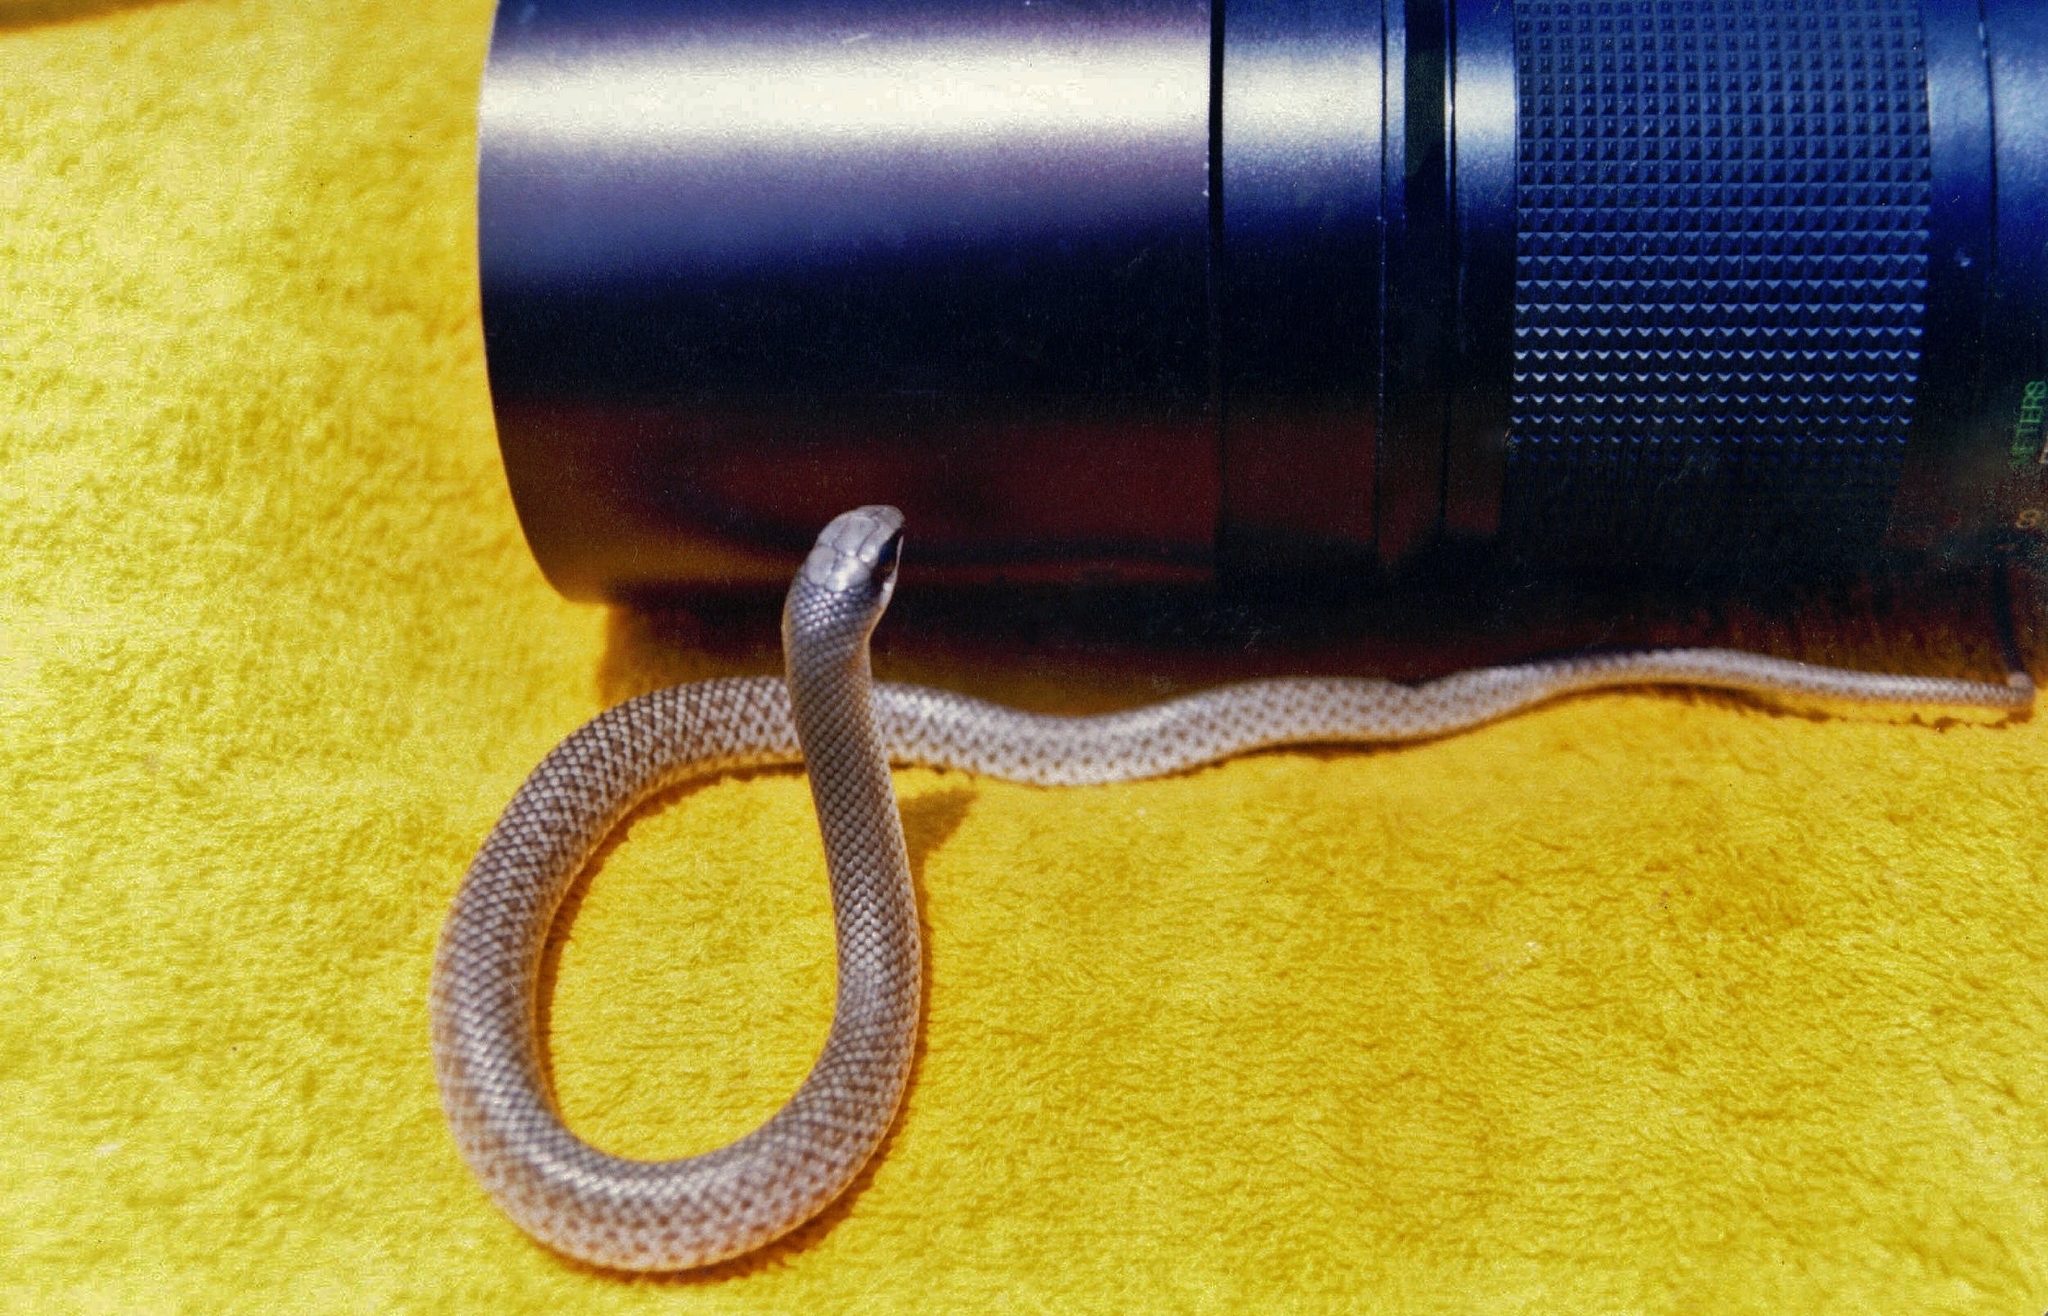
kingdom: Animalia
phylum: Chordata
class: Squamata
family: Psammophiidae
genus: Rhamphiophis
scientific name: Rhamphiophis rostratus
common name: Rufous beaked snake
